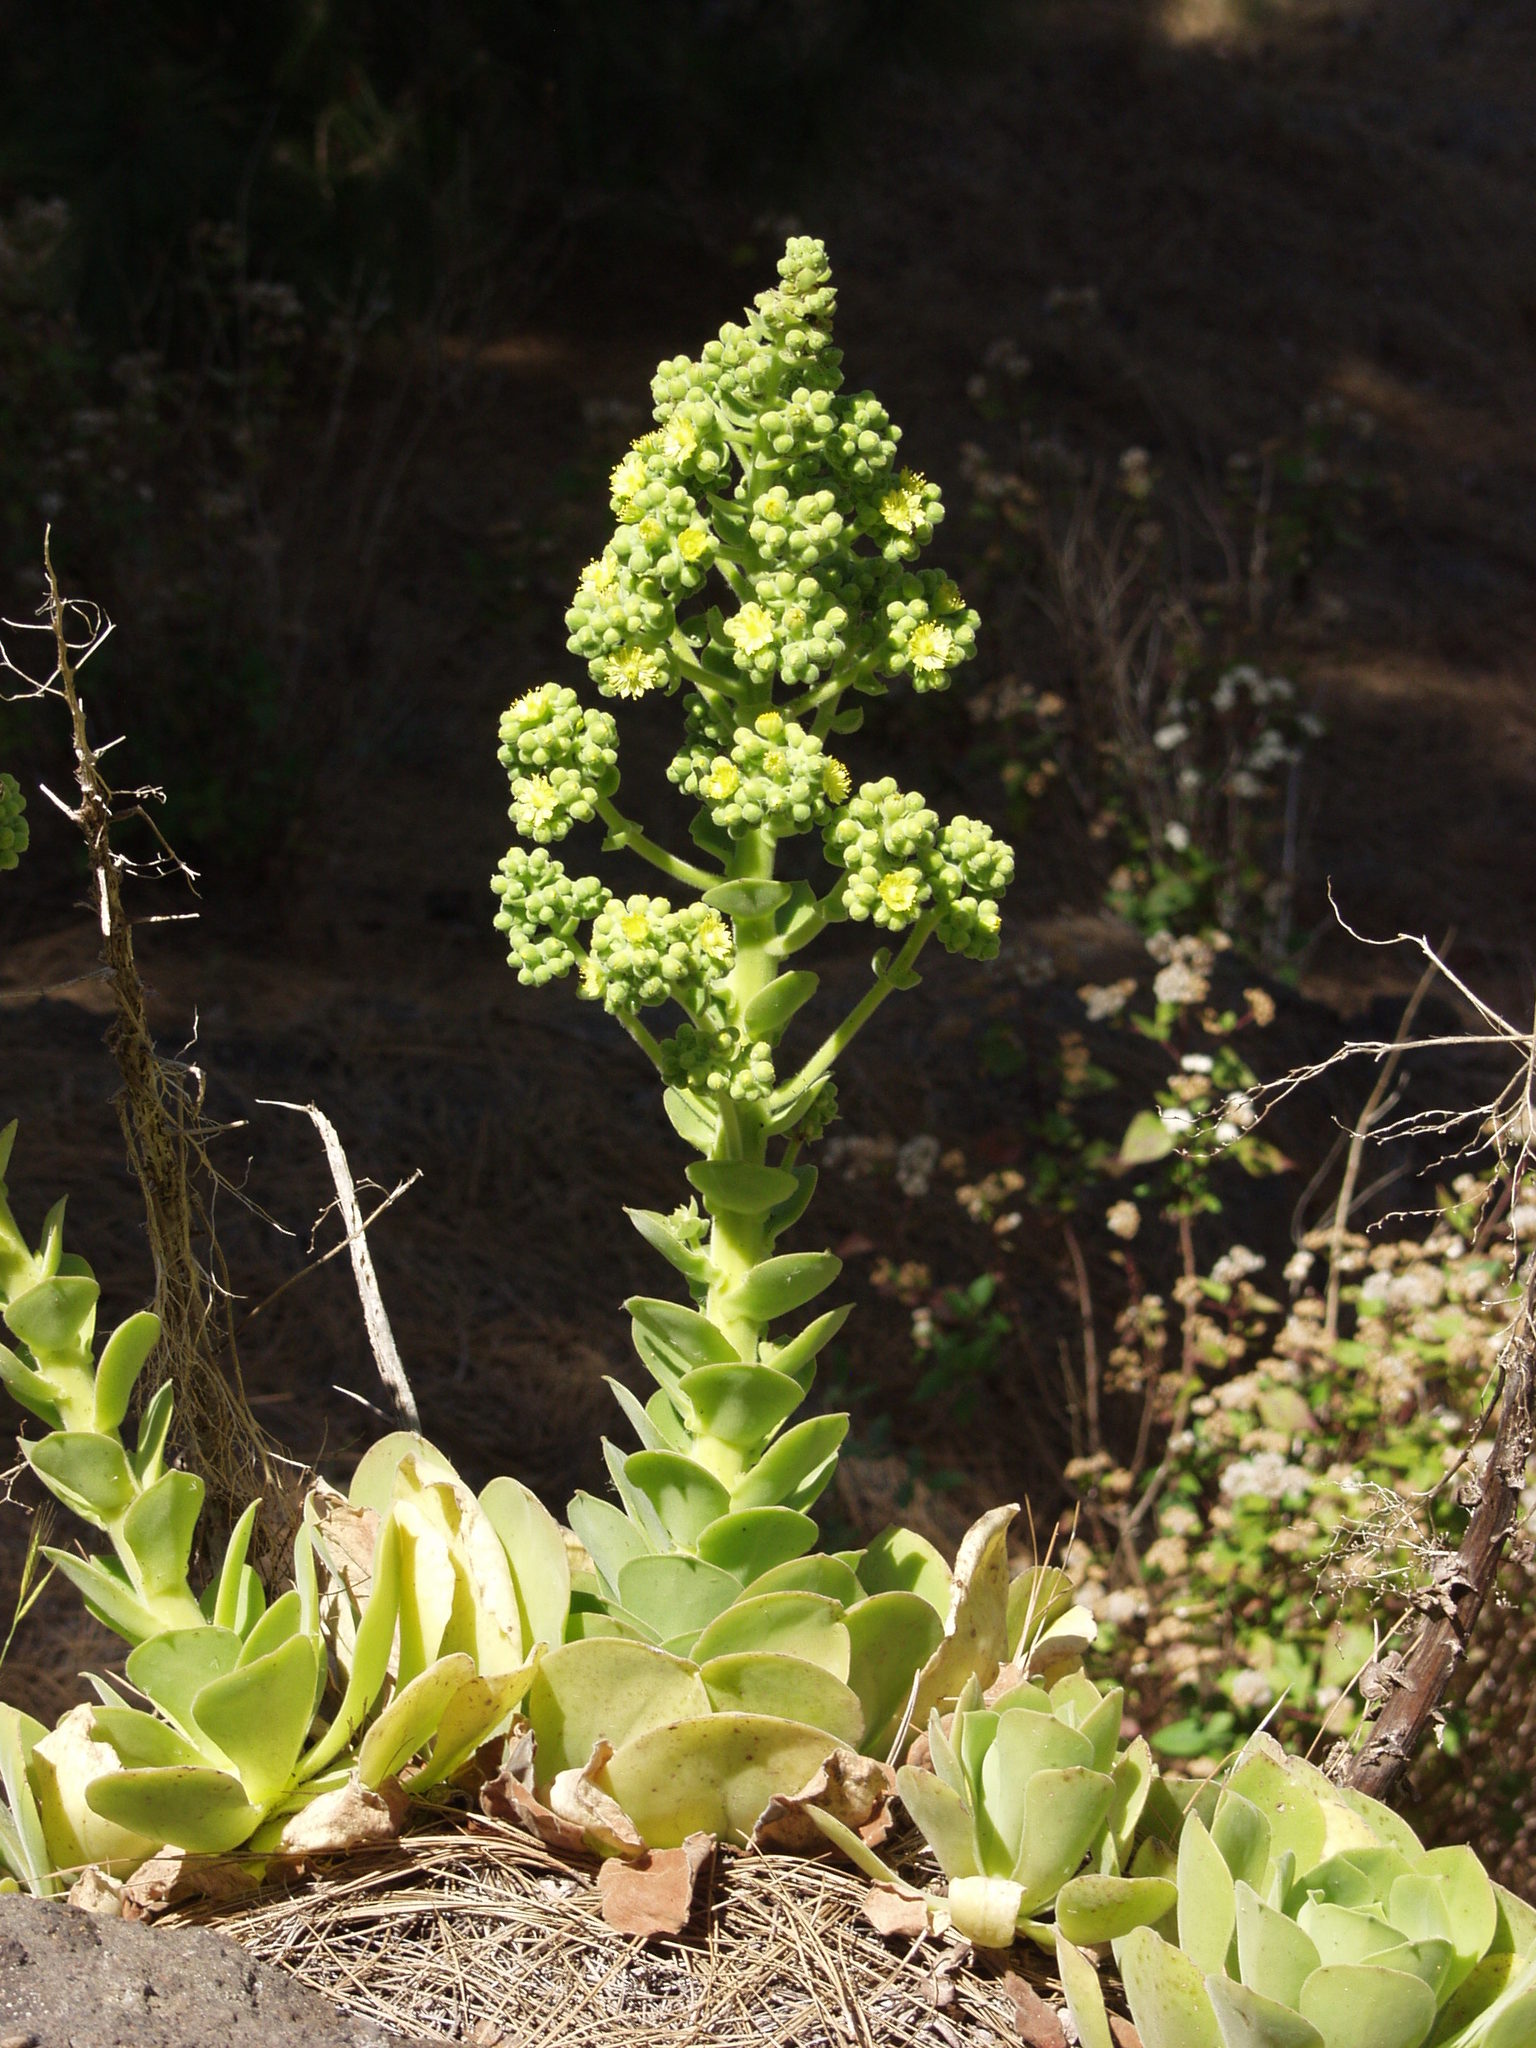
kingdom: Plantae
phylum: Tracheophyta
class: Magnoliopsida
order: Saxifragales
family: Crassulaceae
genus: Aeonium
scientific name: Aeonium canariense
